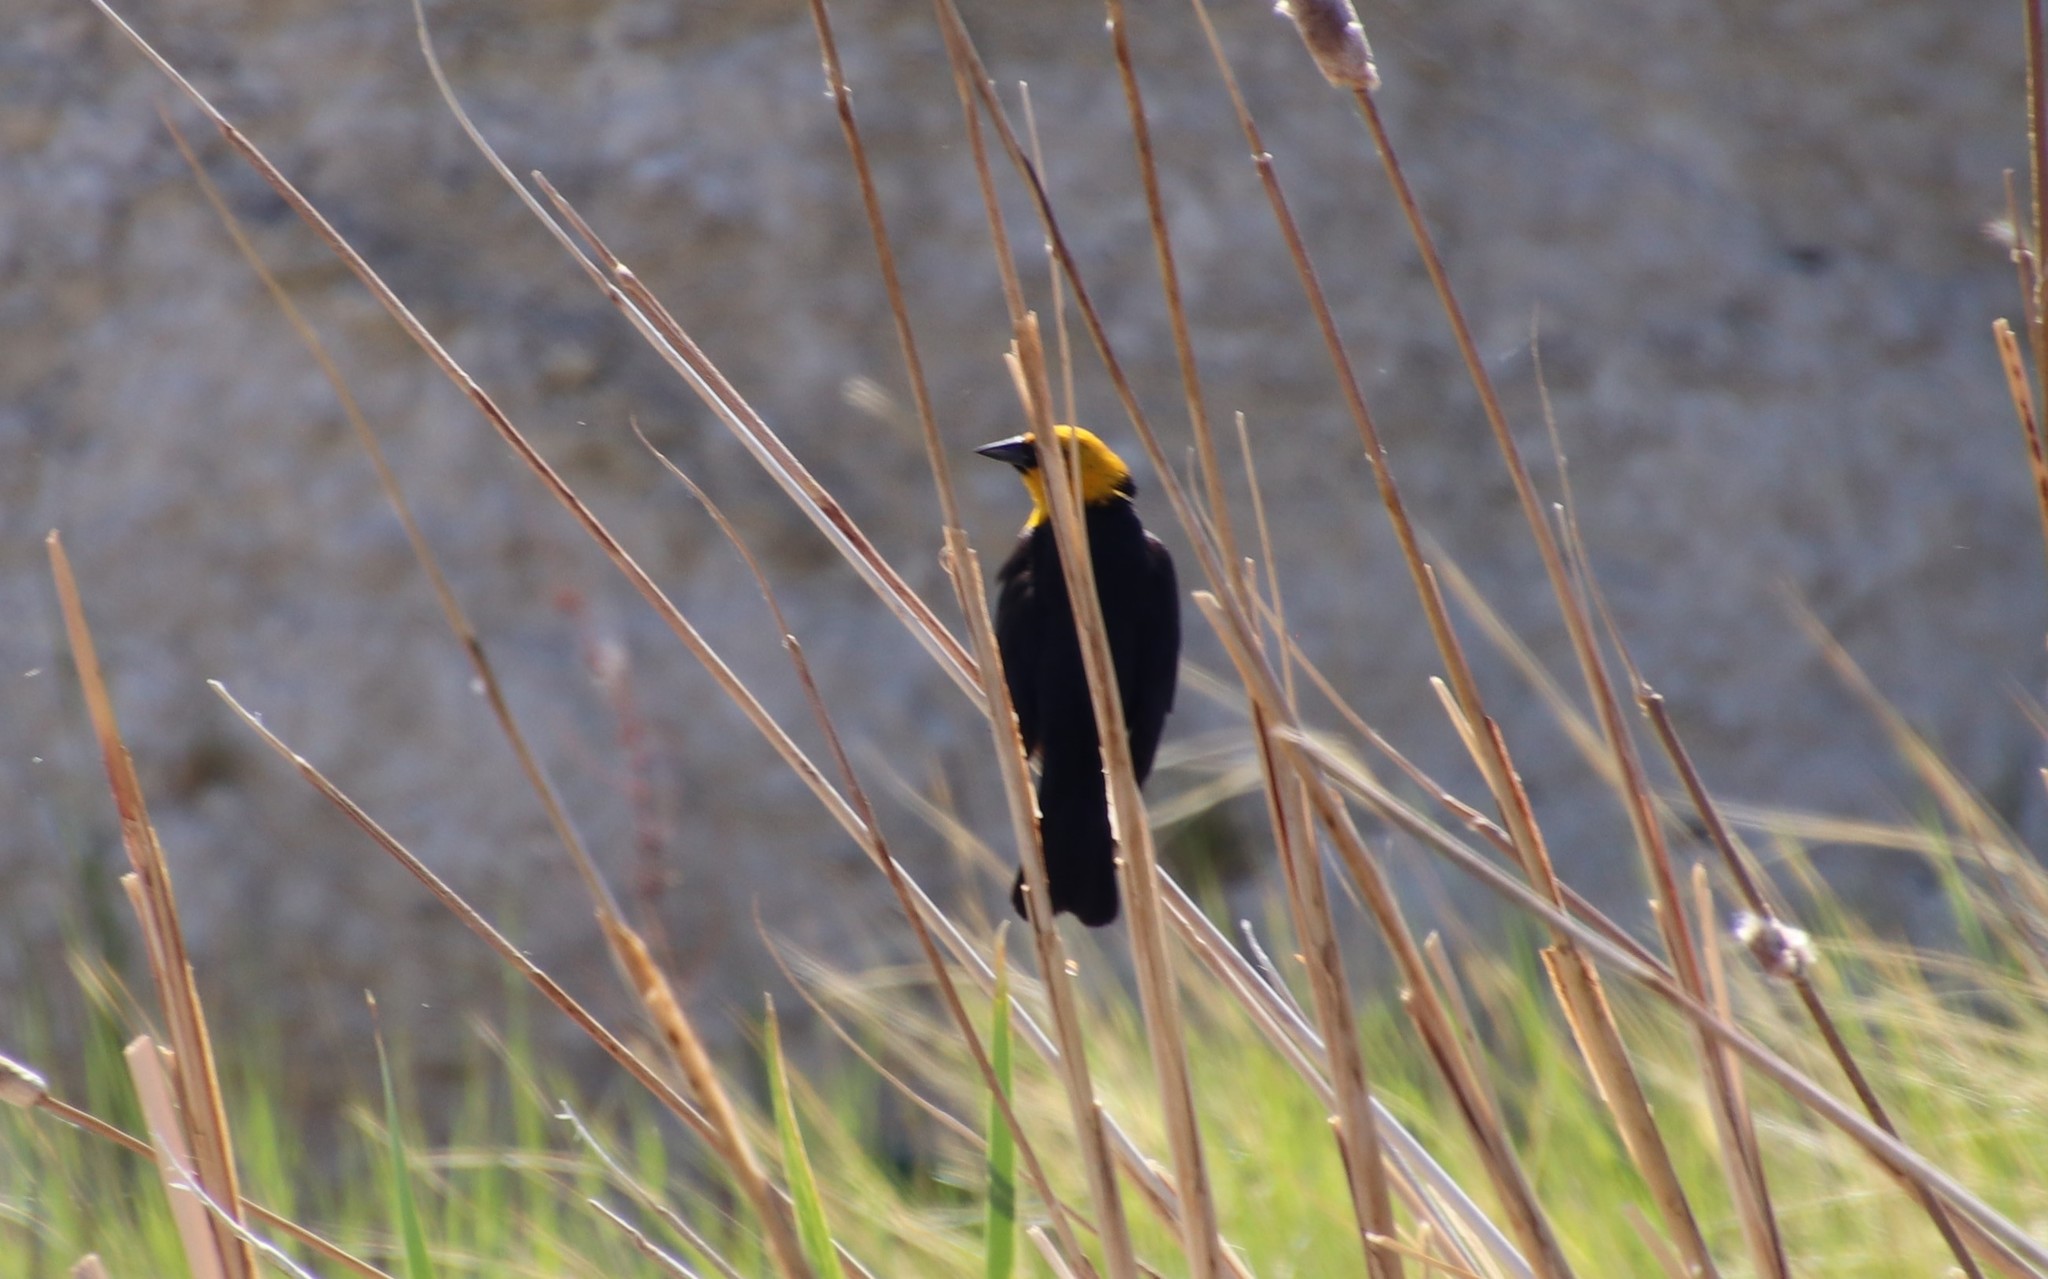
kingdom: Animalia
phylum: Chordata
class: Aves
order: Passeriformes
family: Icteridae
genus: Xanthocephalus
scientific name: Xanthocephalus xanthocephalus
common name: Yellow-headed blackbird
